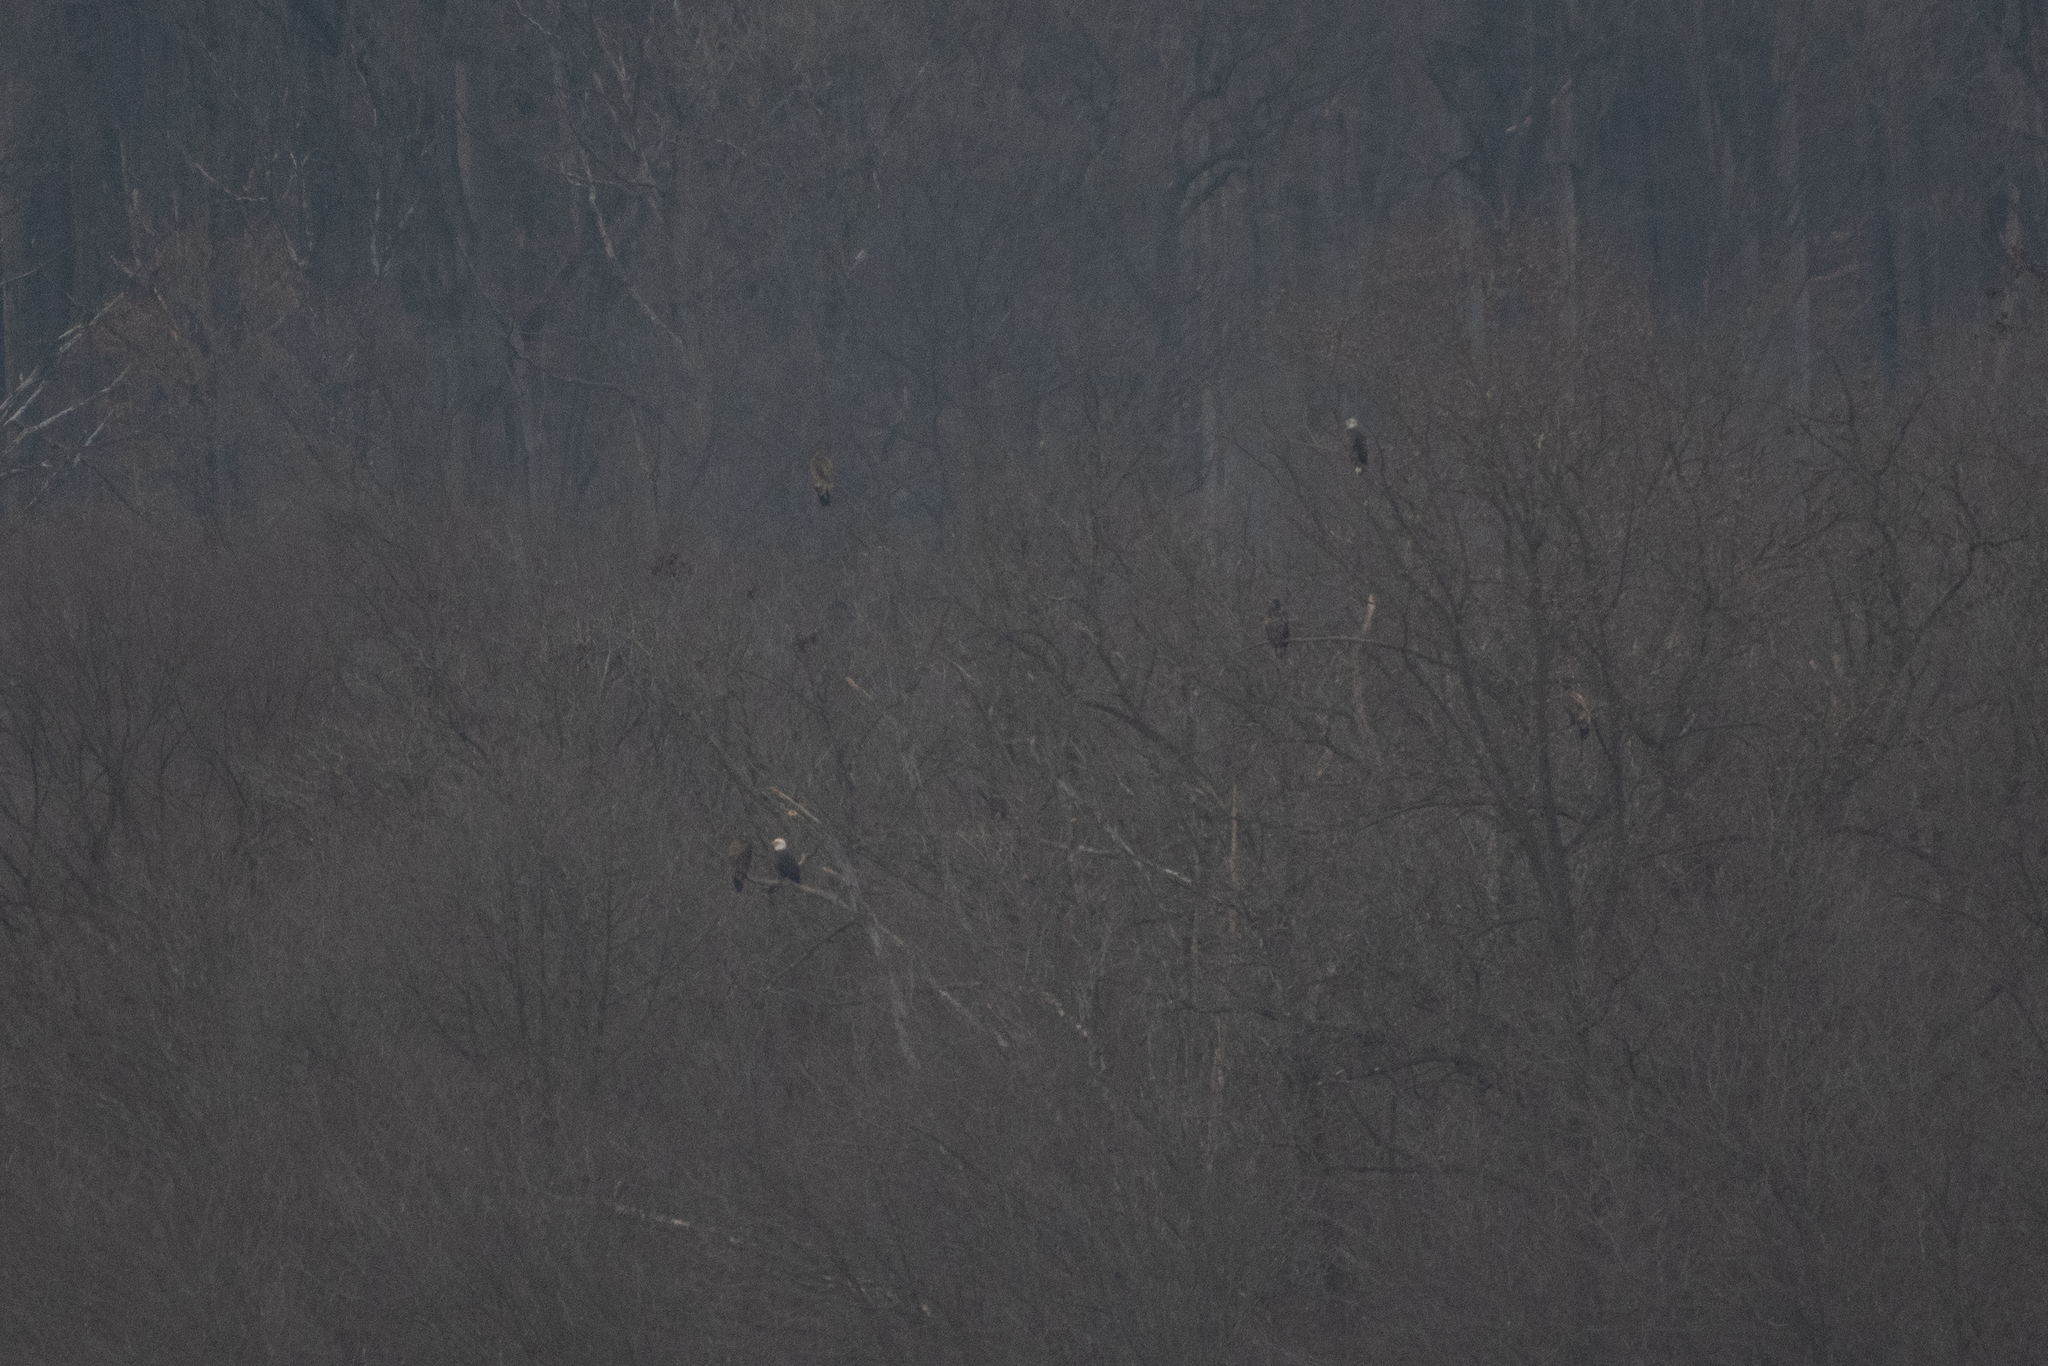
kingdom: Animalia
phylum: Chordata
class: Aves
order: Accipitriformes
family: Accipitridae
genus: Haliaeetus
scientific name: Haliaeetus leucocephalus
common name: Bald eagle
